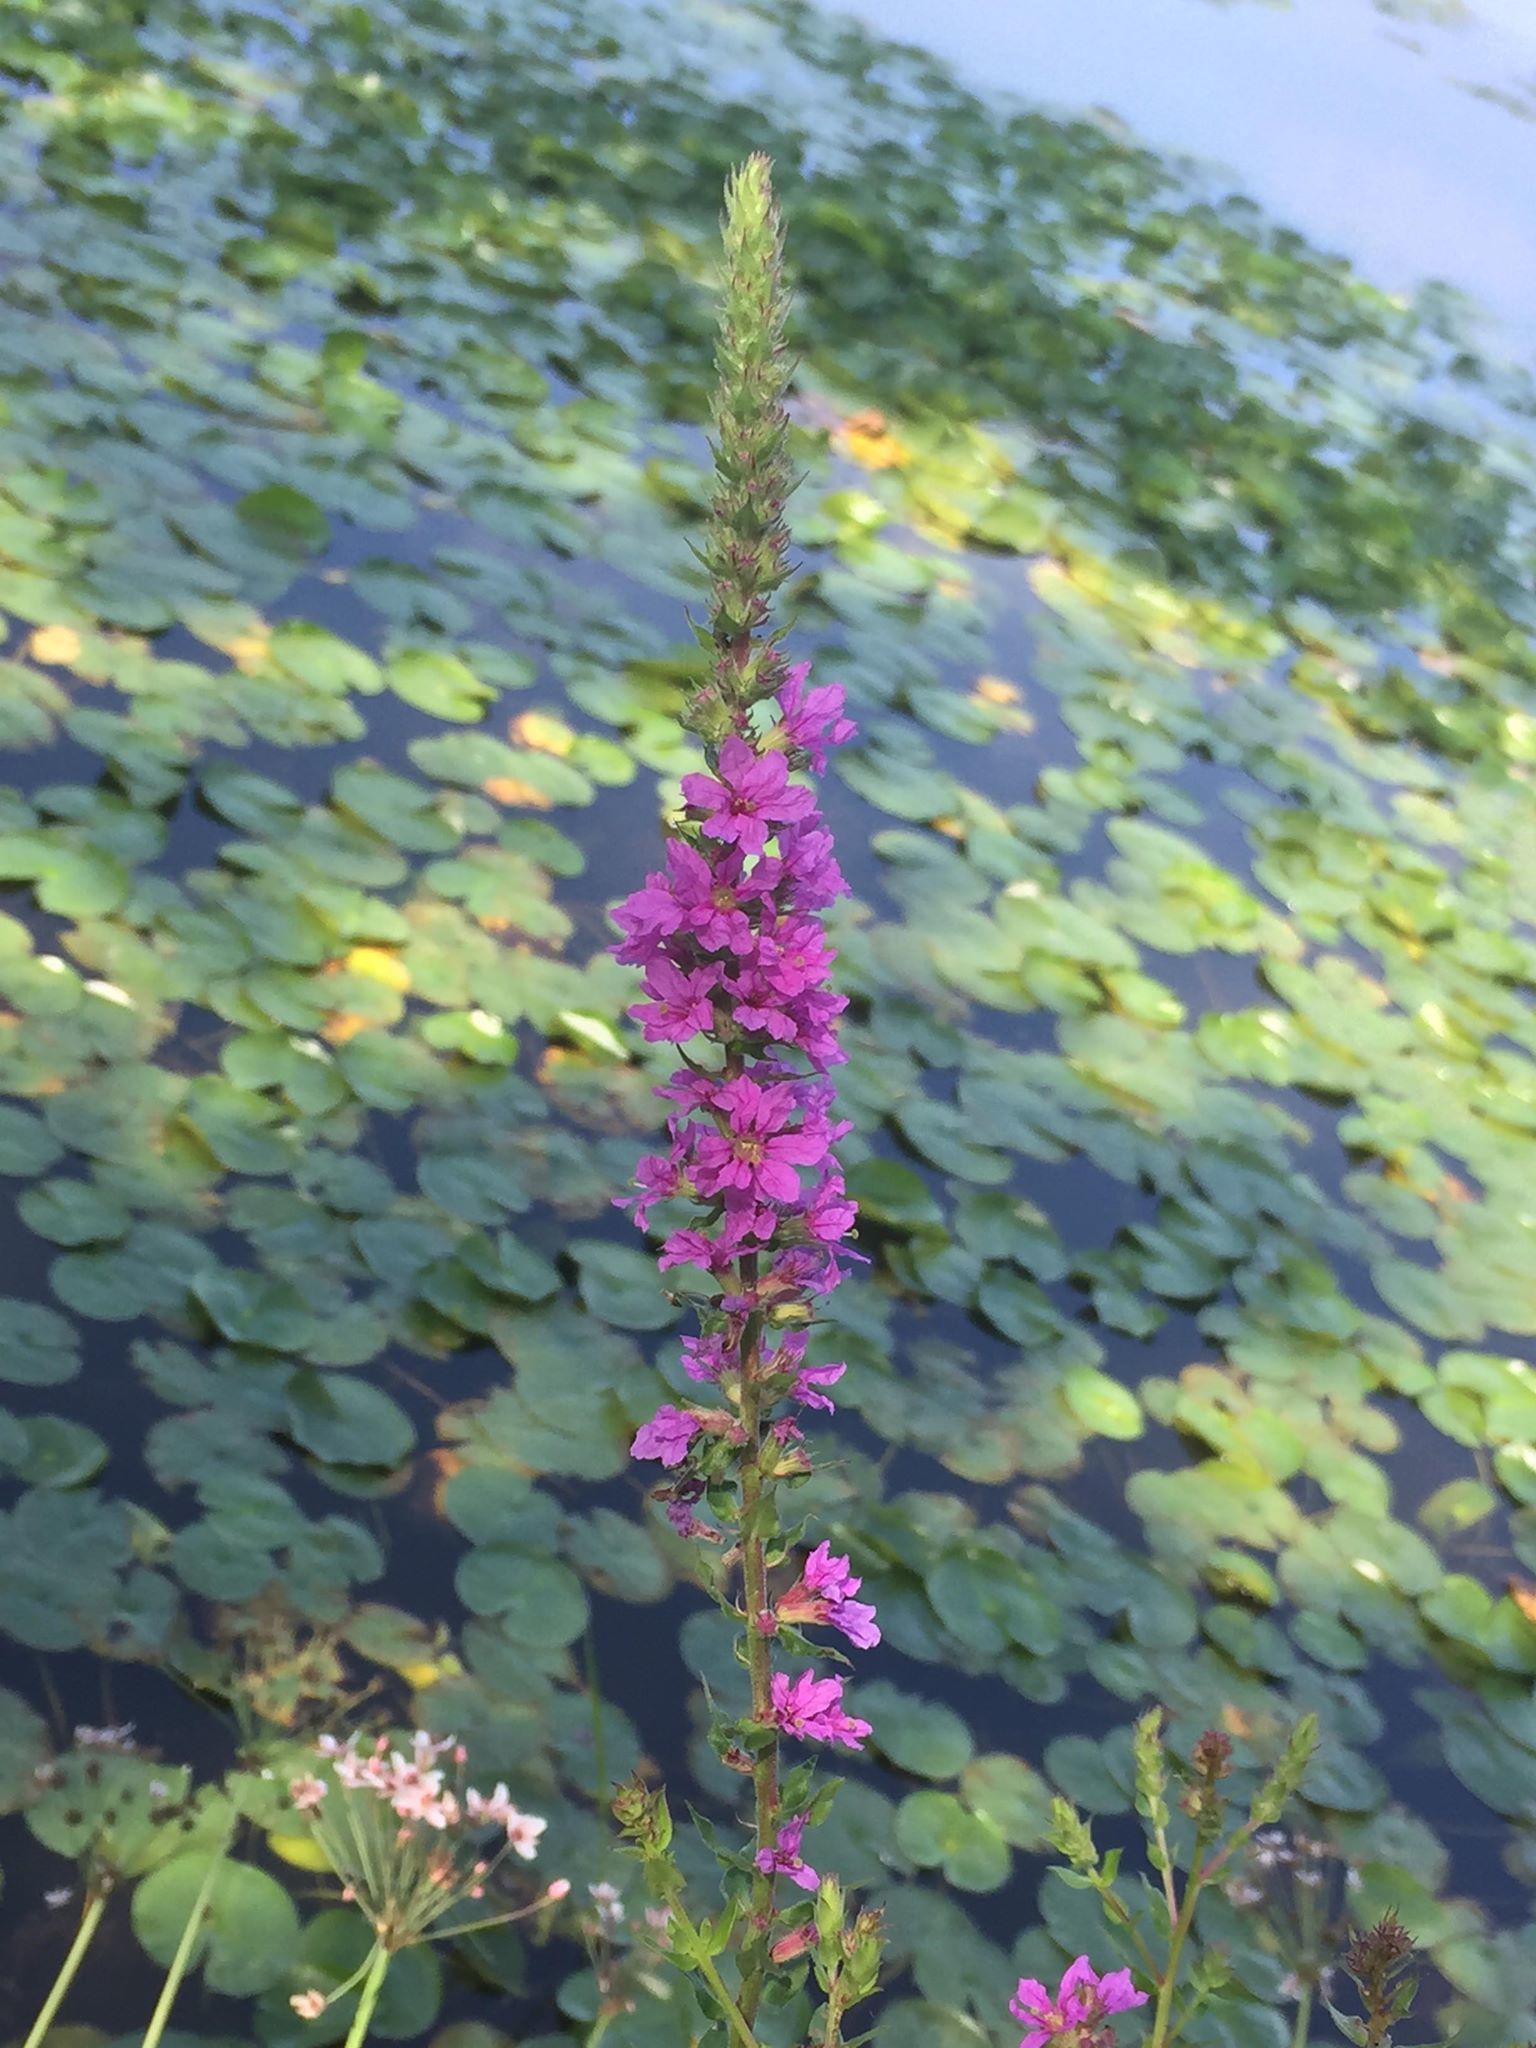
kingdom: Plantae
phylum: Tracheophyta
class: Magnoliopsida
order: Myrtales
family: Lythraceae
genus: Lythrum
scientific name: Lythrum salicaria
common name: Purple loosestrife
